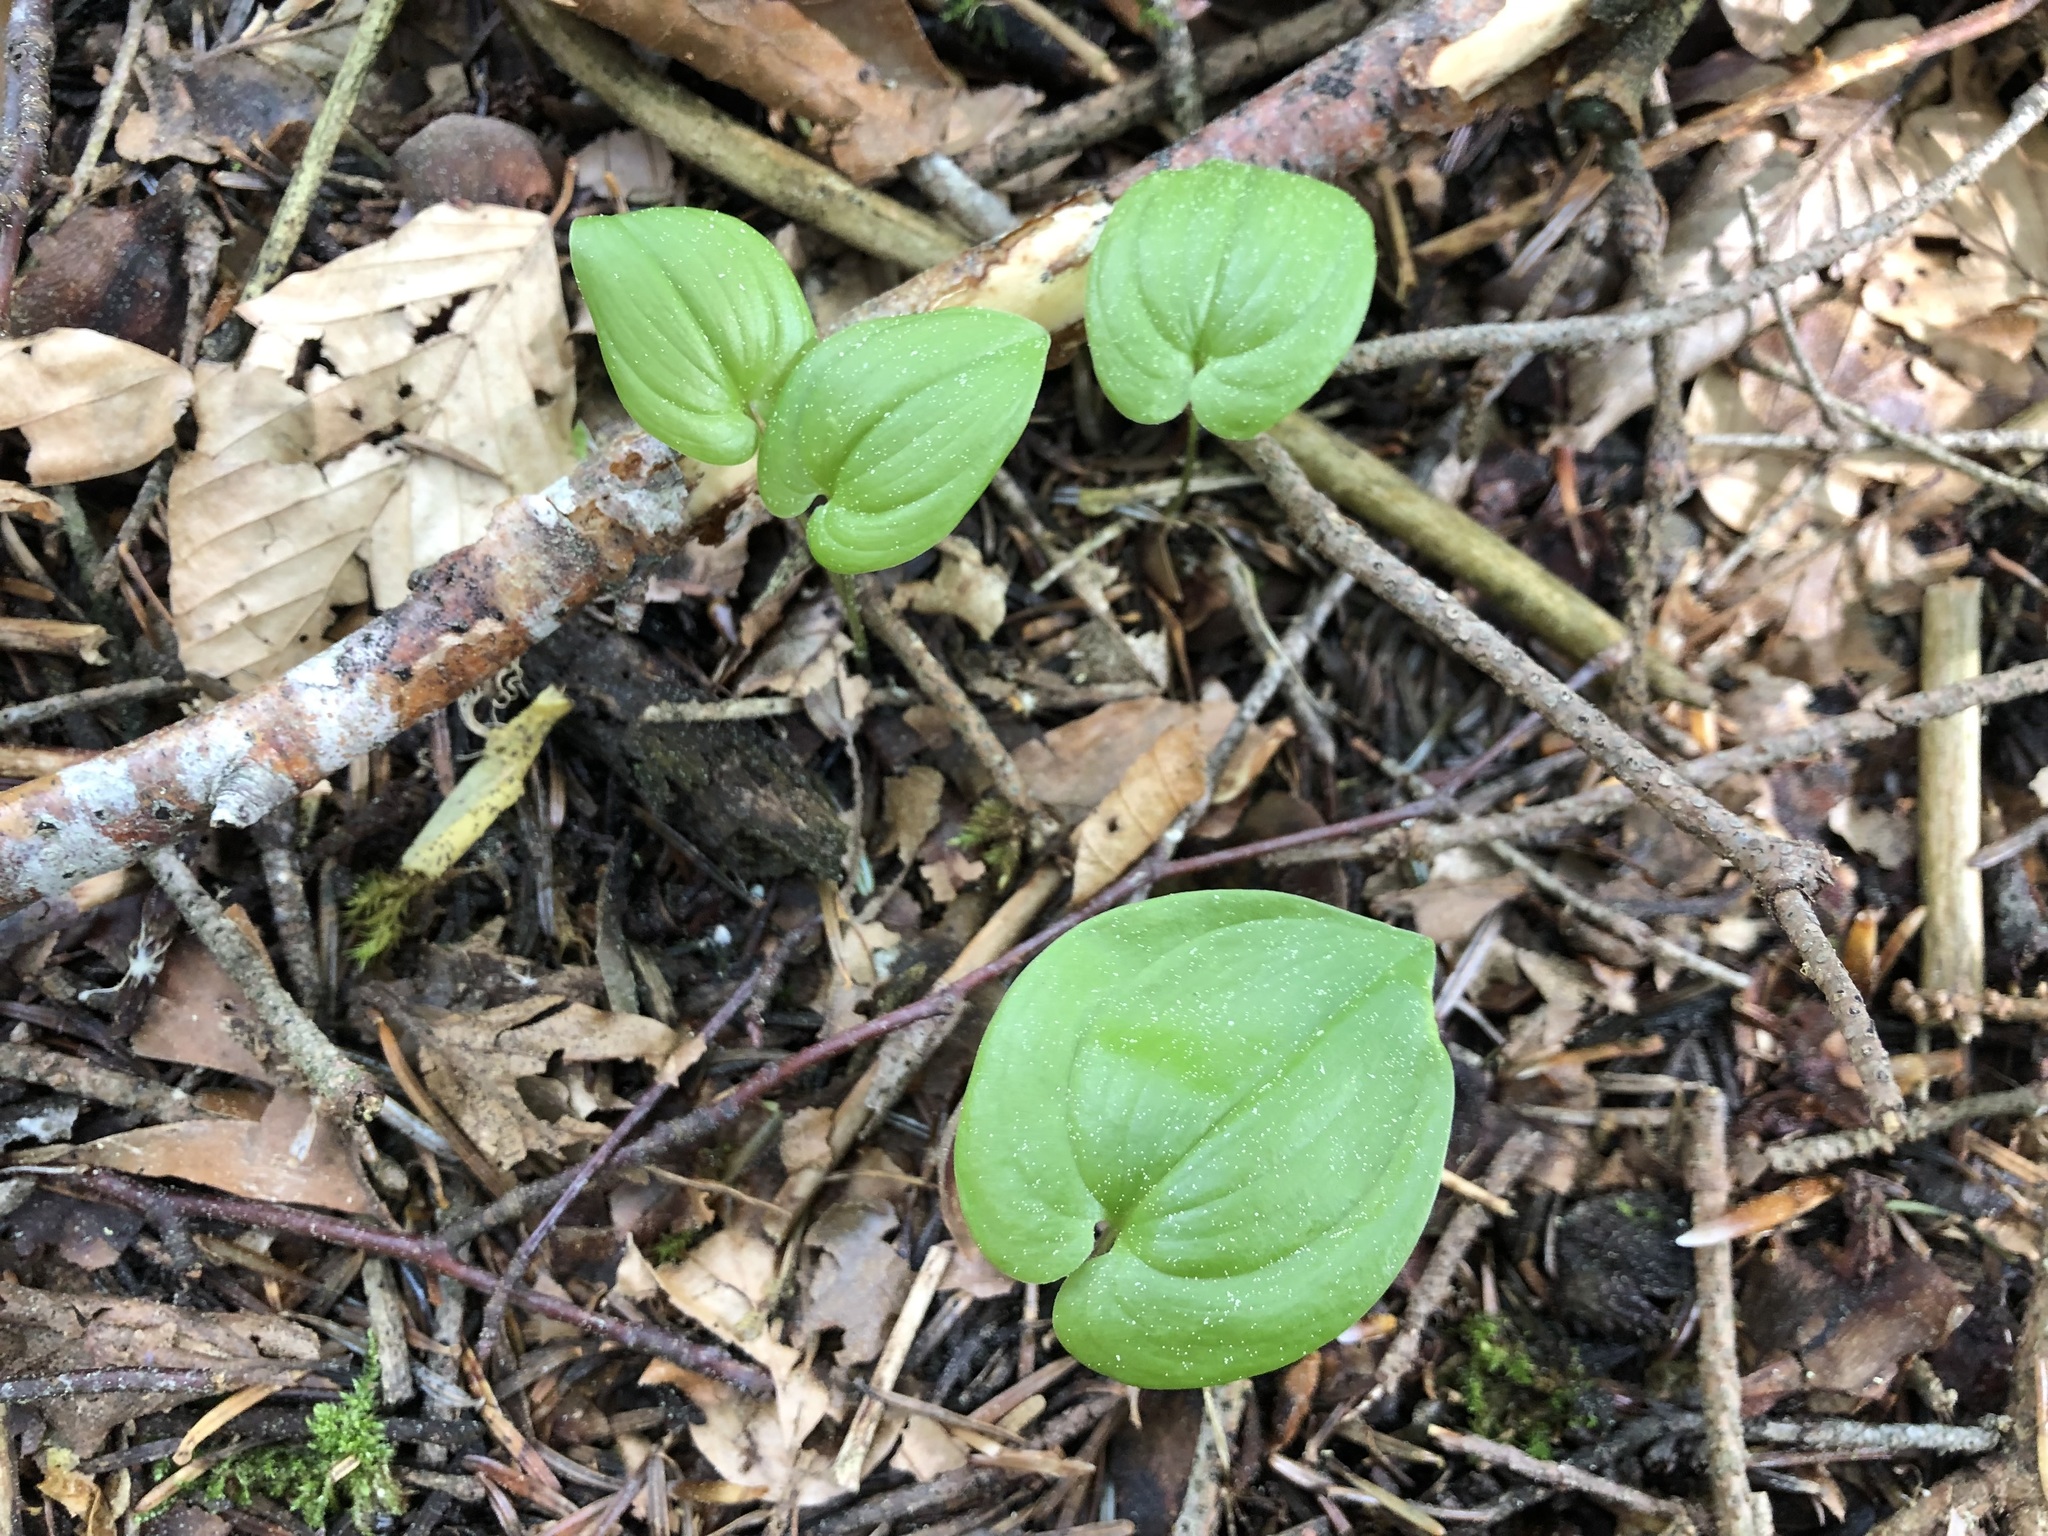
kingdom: Plantae
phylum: Tracheophyta
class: Liliopsida
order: Asparagales
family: Asparagaceae
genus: Maianthemum
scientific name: Maianthemum bifolium
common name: May lily
